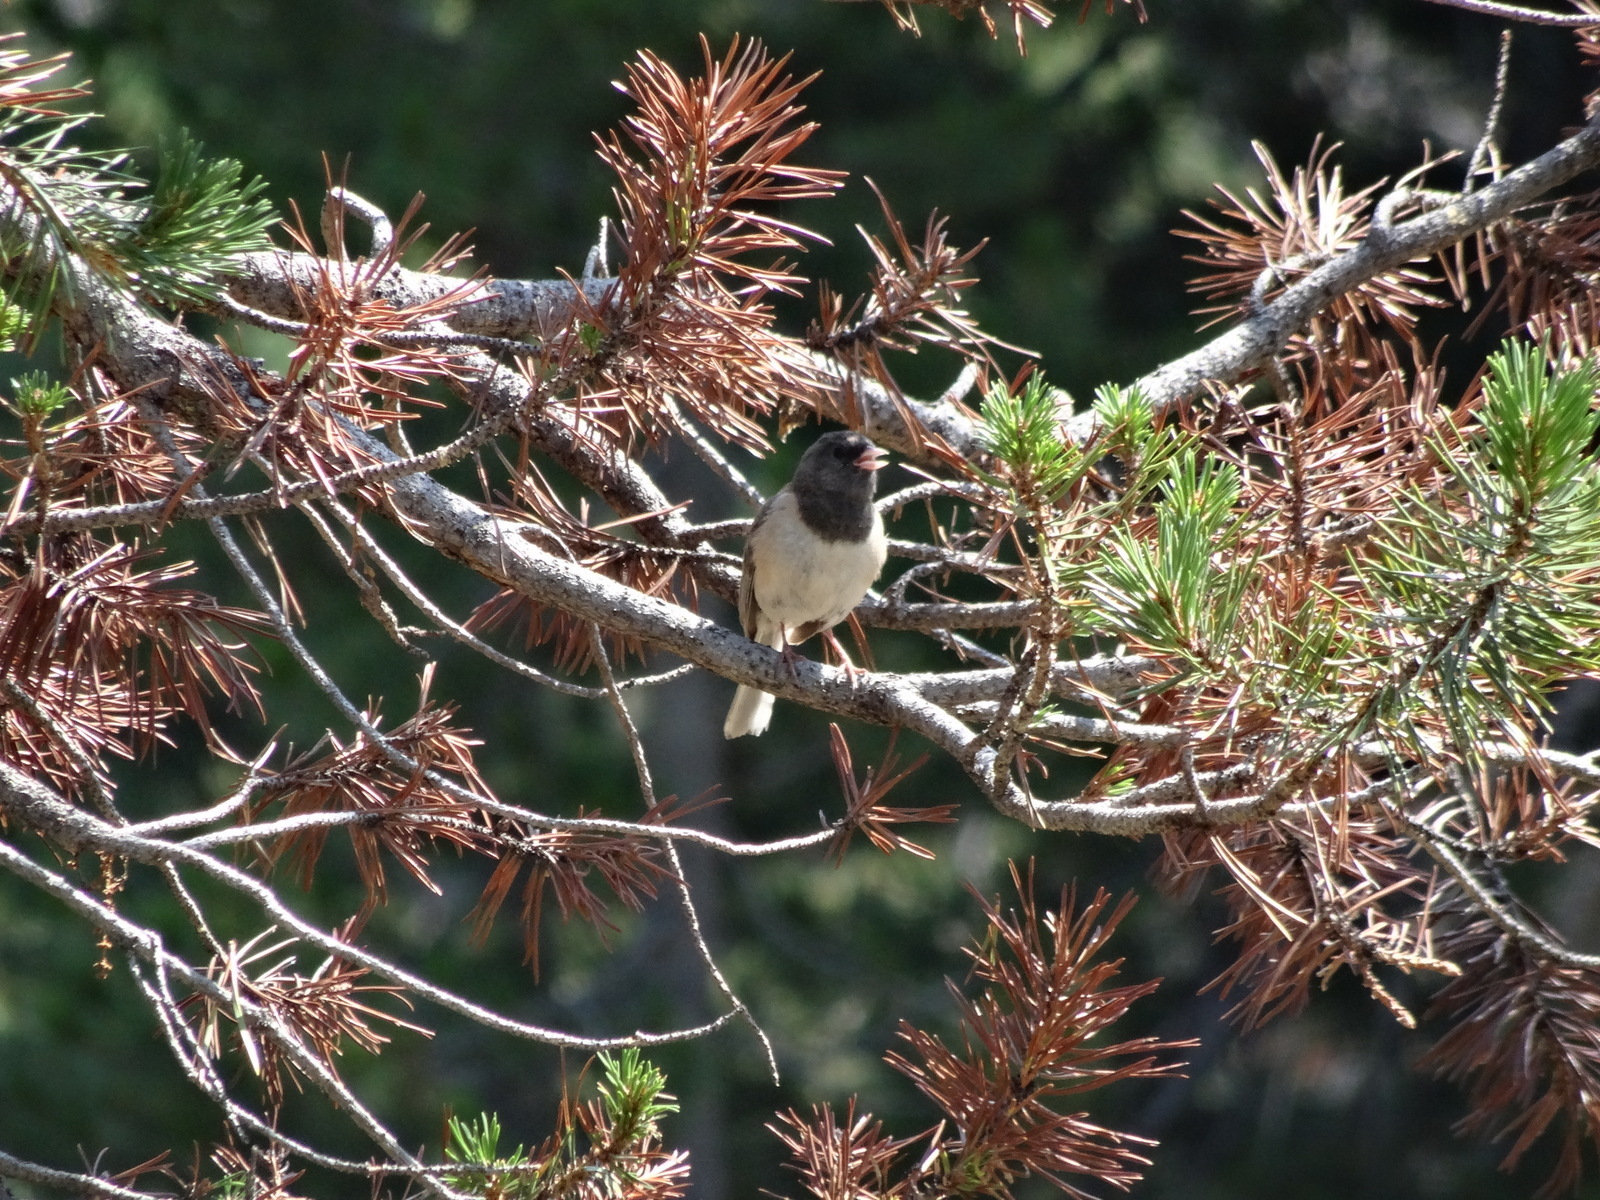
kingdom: Animalia
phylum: Chordata
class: Aves
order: Passeriformes
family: Passerellidae
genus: Junco
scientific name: Junco hyemalis
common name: Dark-eyed junco
